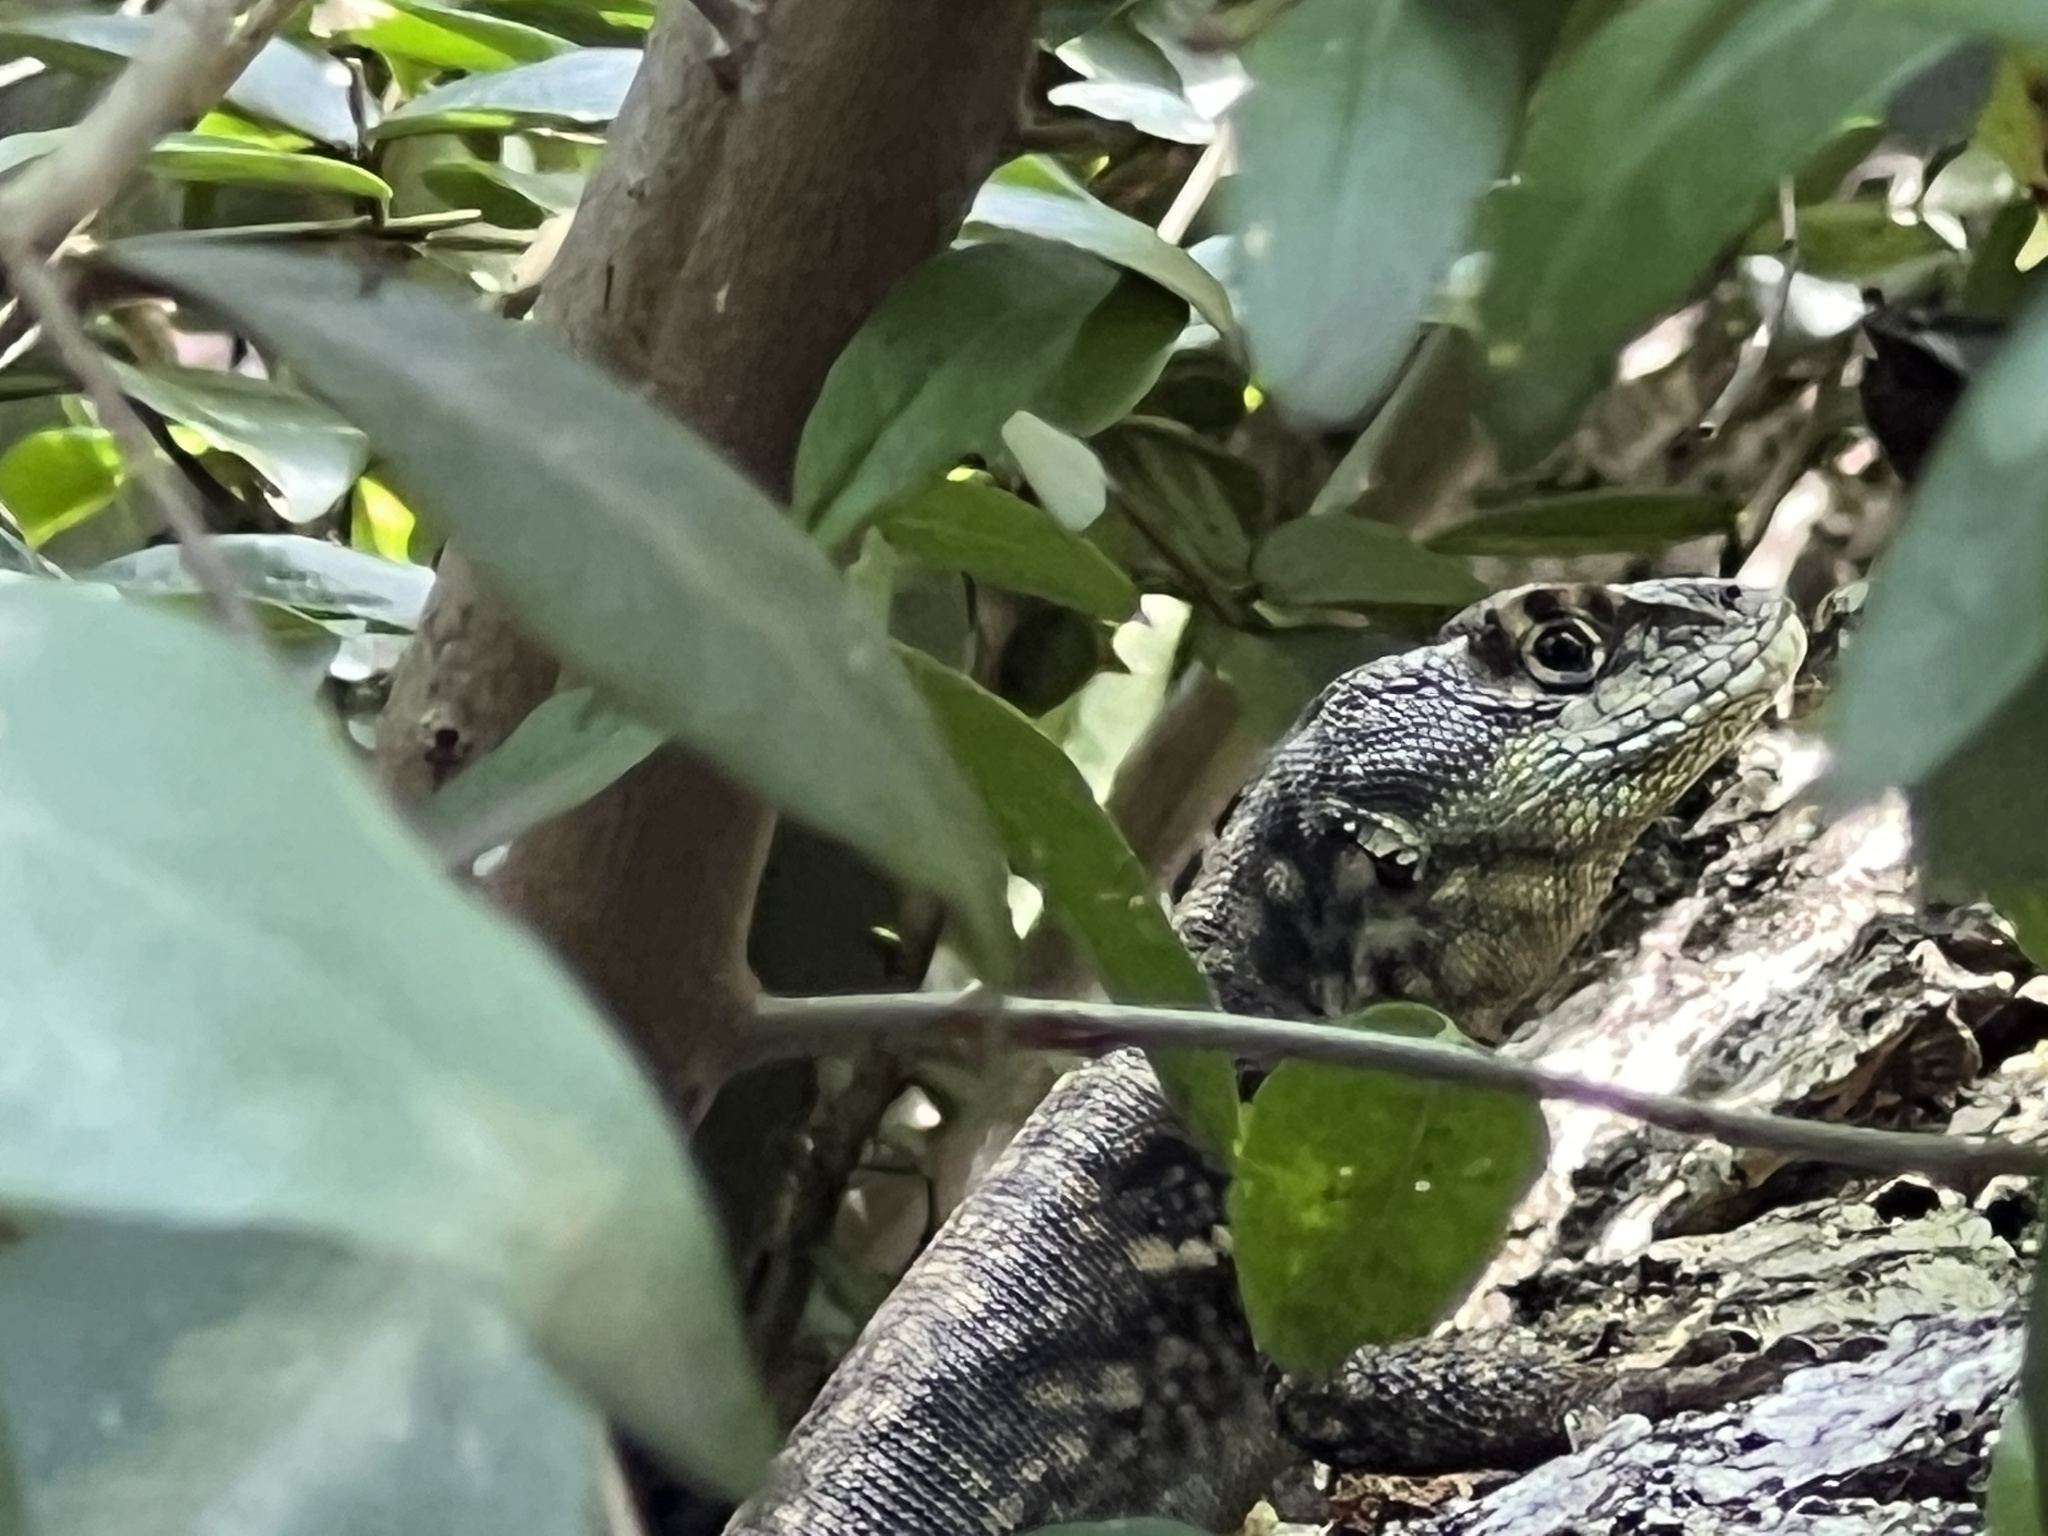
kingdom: Animalia
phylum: Chordata
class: Squamata
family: Tropiduridae
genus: Tropidurus
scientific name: Tropidurus catalanensis
